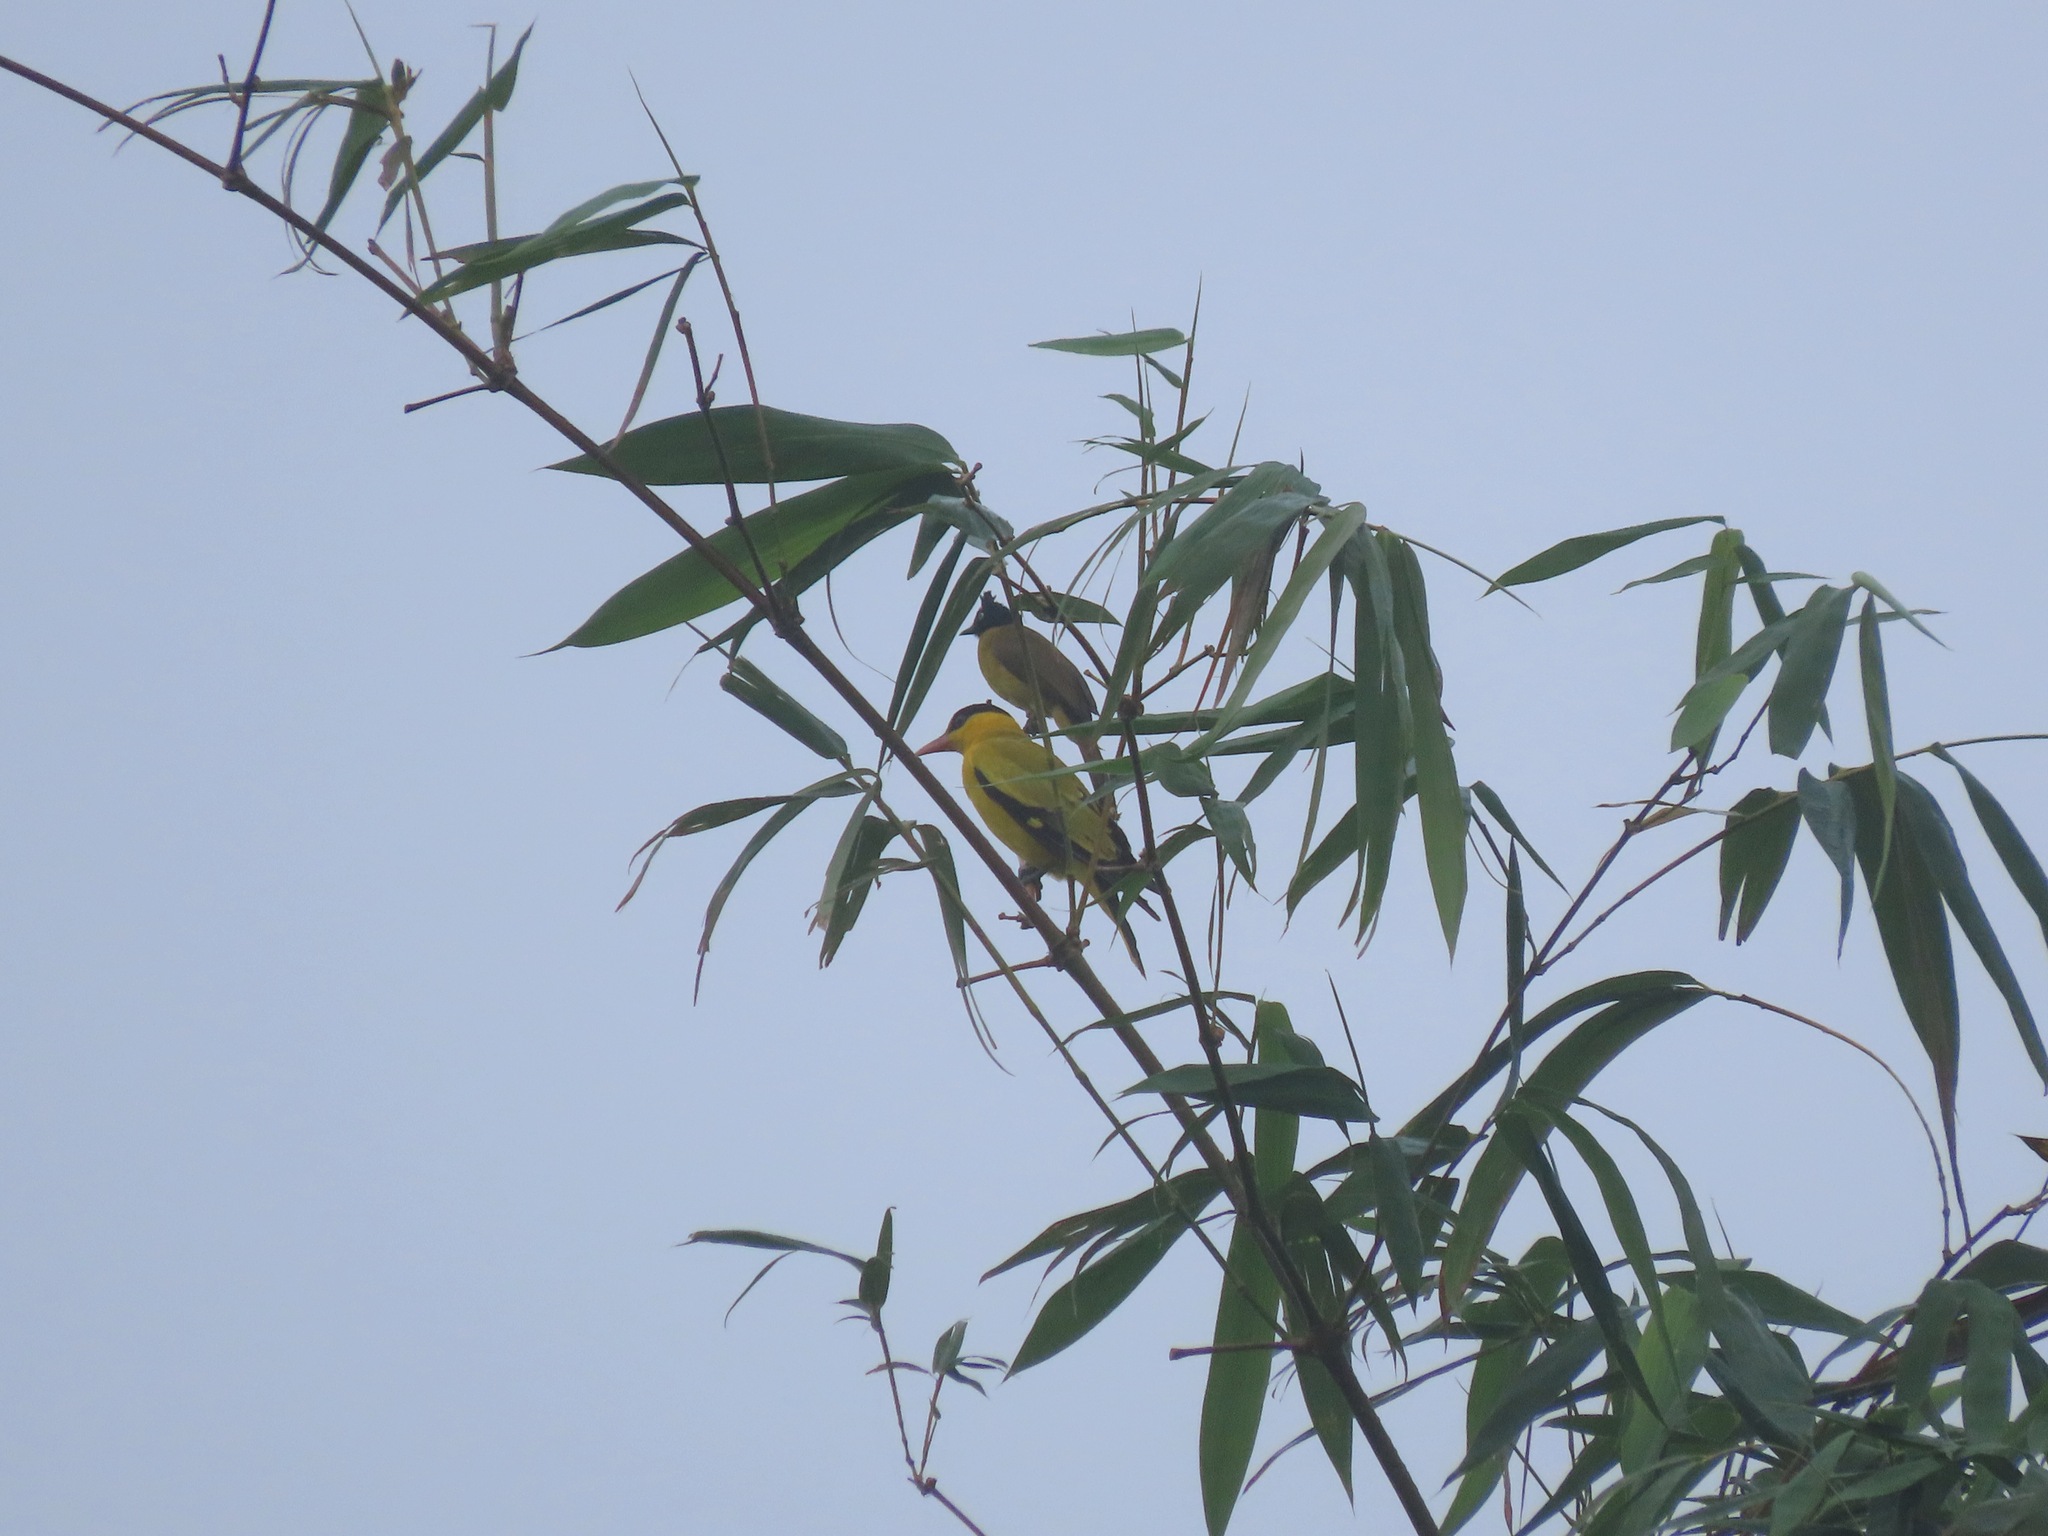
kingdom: Animalia
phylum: Chordata
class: Aves
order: Passeriformes
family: Pycnonotidae
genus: Pycnonotus
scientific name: Pycnonotus flaviventris
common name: Black-crested bulbul
